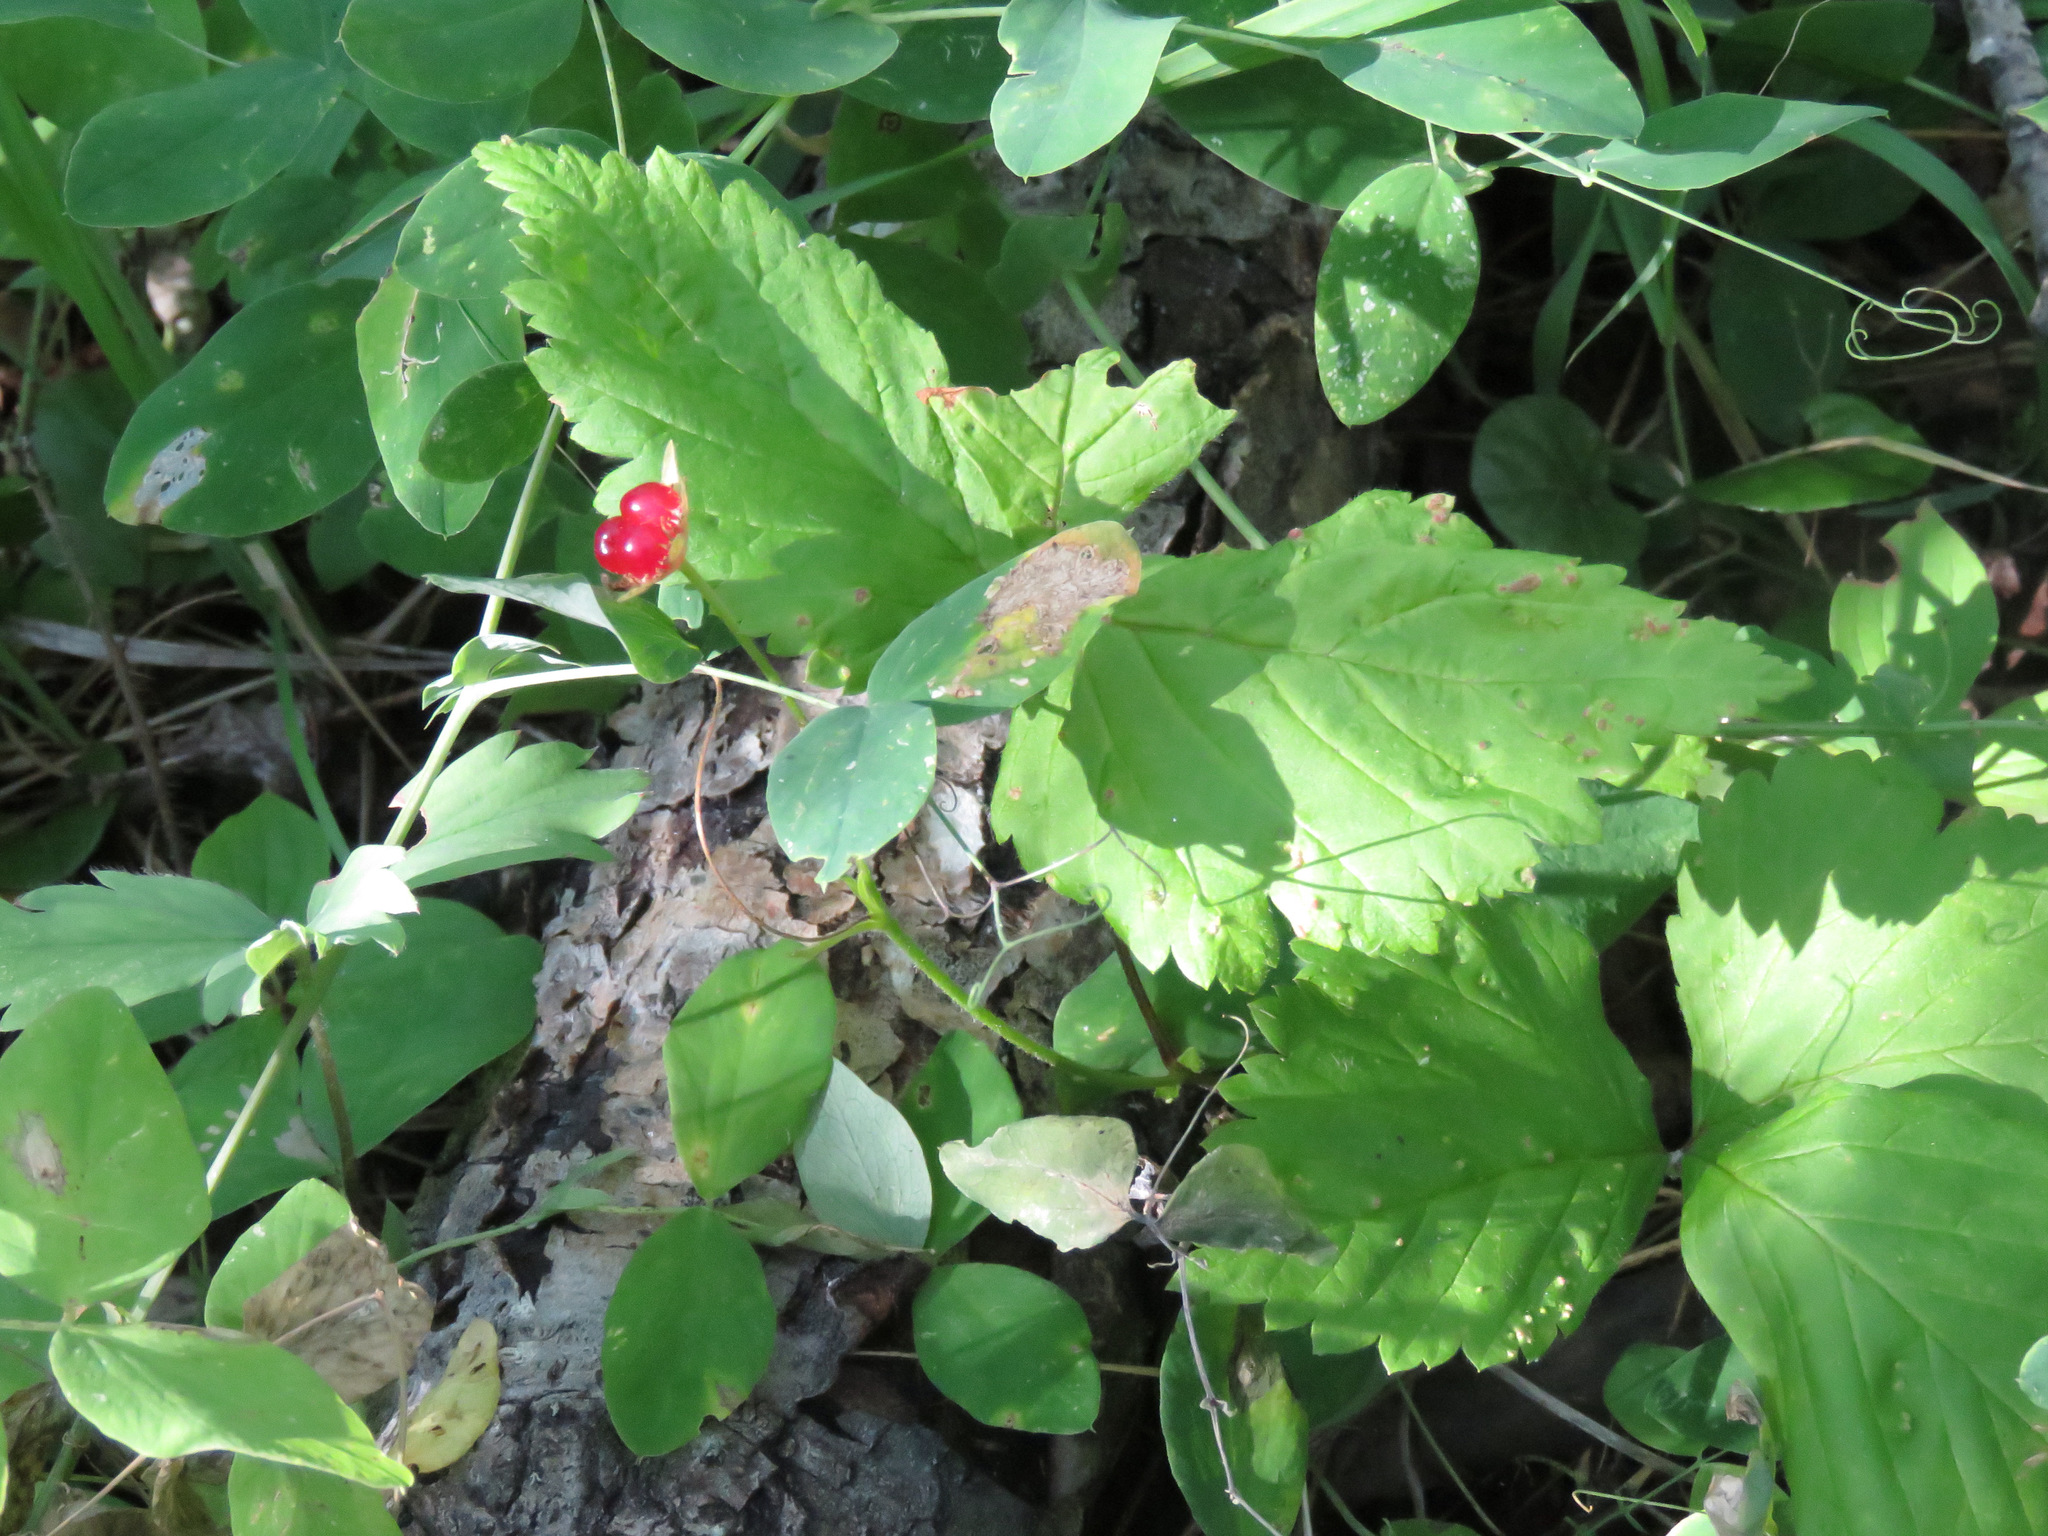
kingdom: Plantae
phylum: Tracheophyta
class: Magnoliopsida
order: Rosales
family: Rosaceae
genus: Rubus
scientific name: Rubus pubescens
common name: Dwarf raspberry
